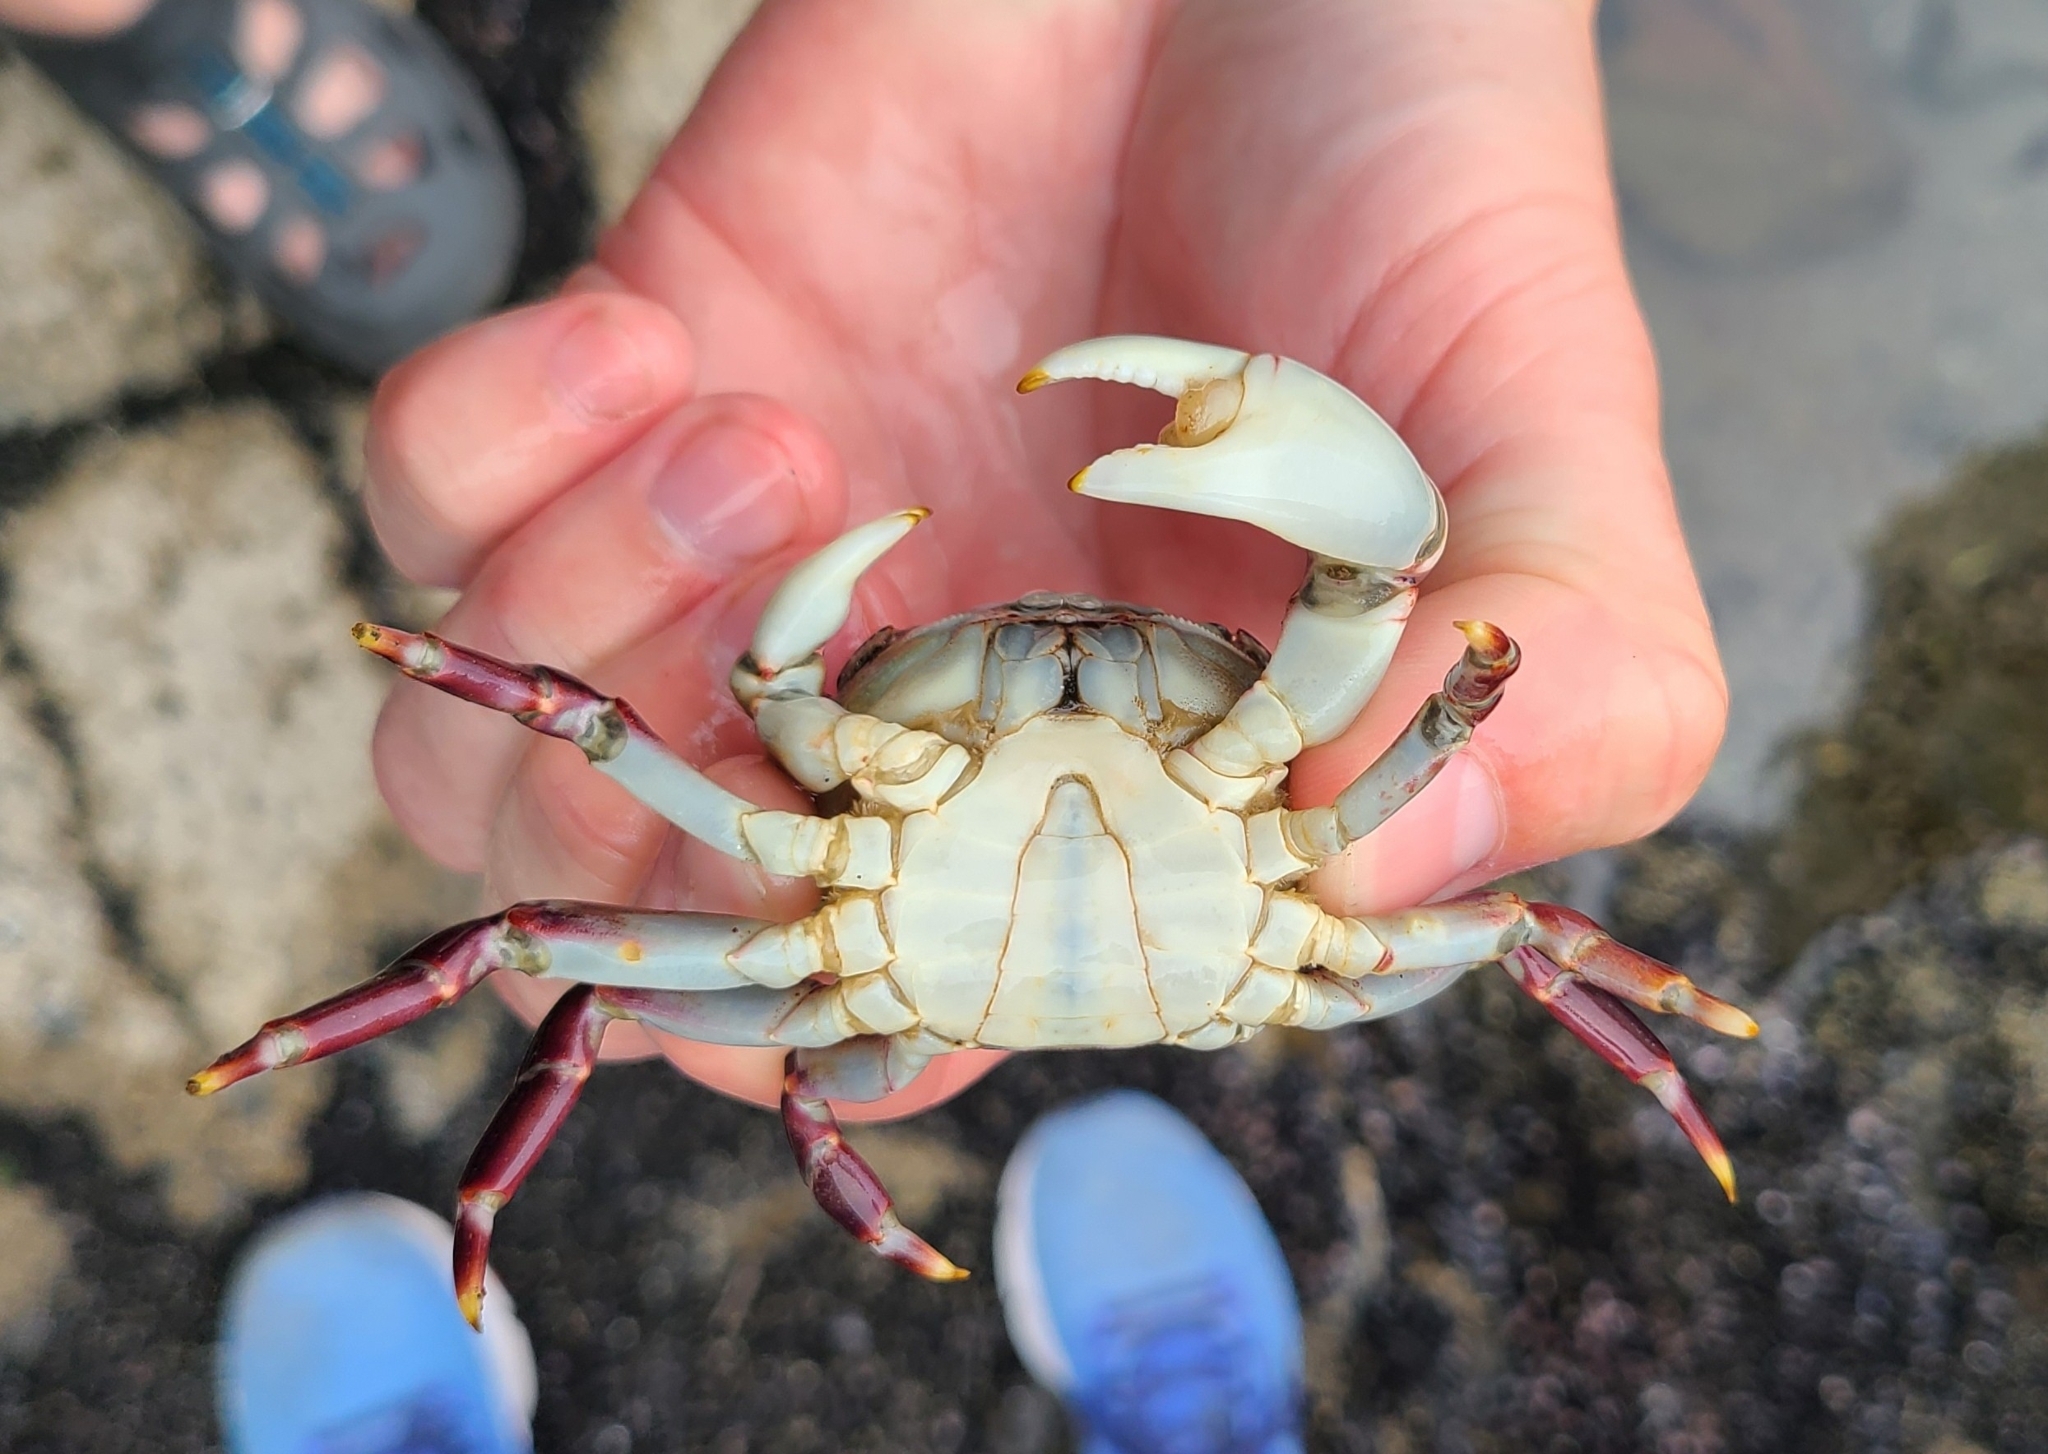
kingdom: Animalia
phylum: Arthropoda
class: Malacostraca
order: Decapoda
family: Varunidae
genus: Hemigrapsus
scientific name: Hemigrapsus sexdentatus
